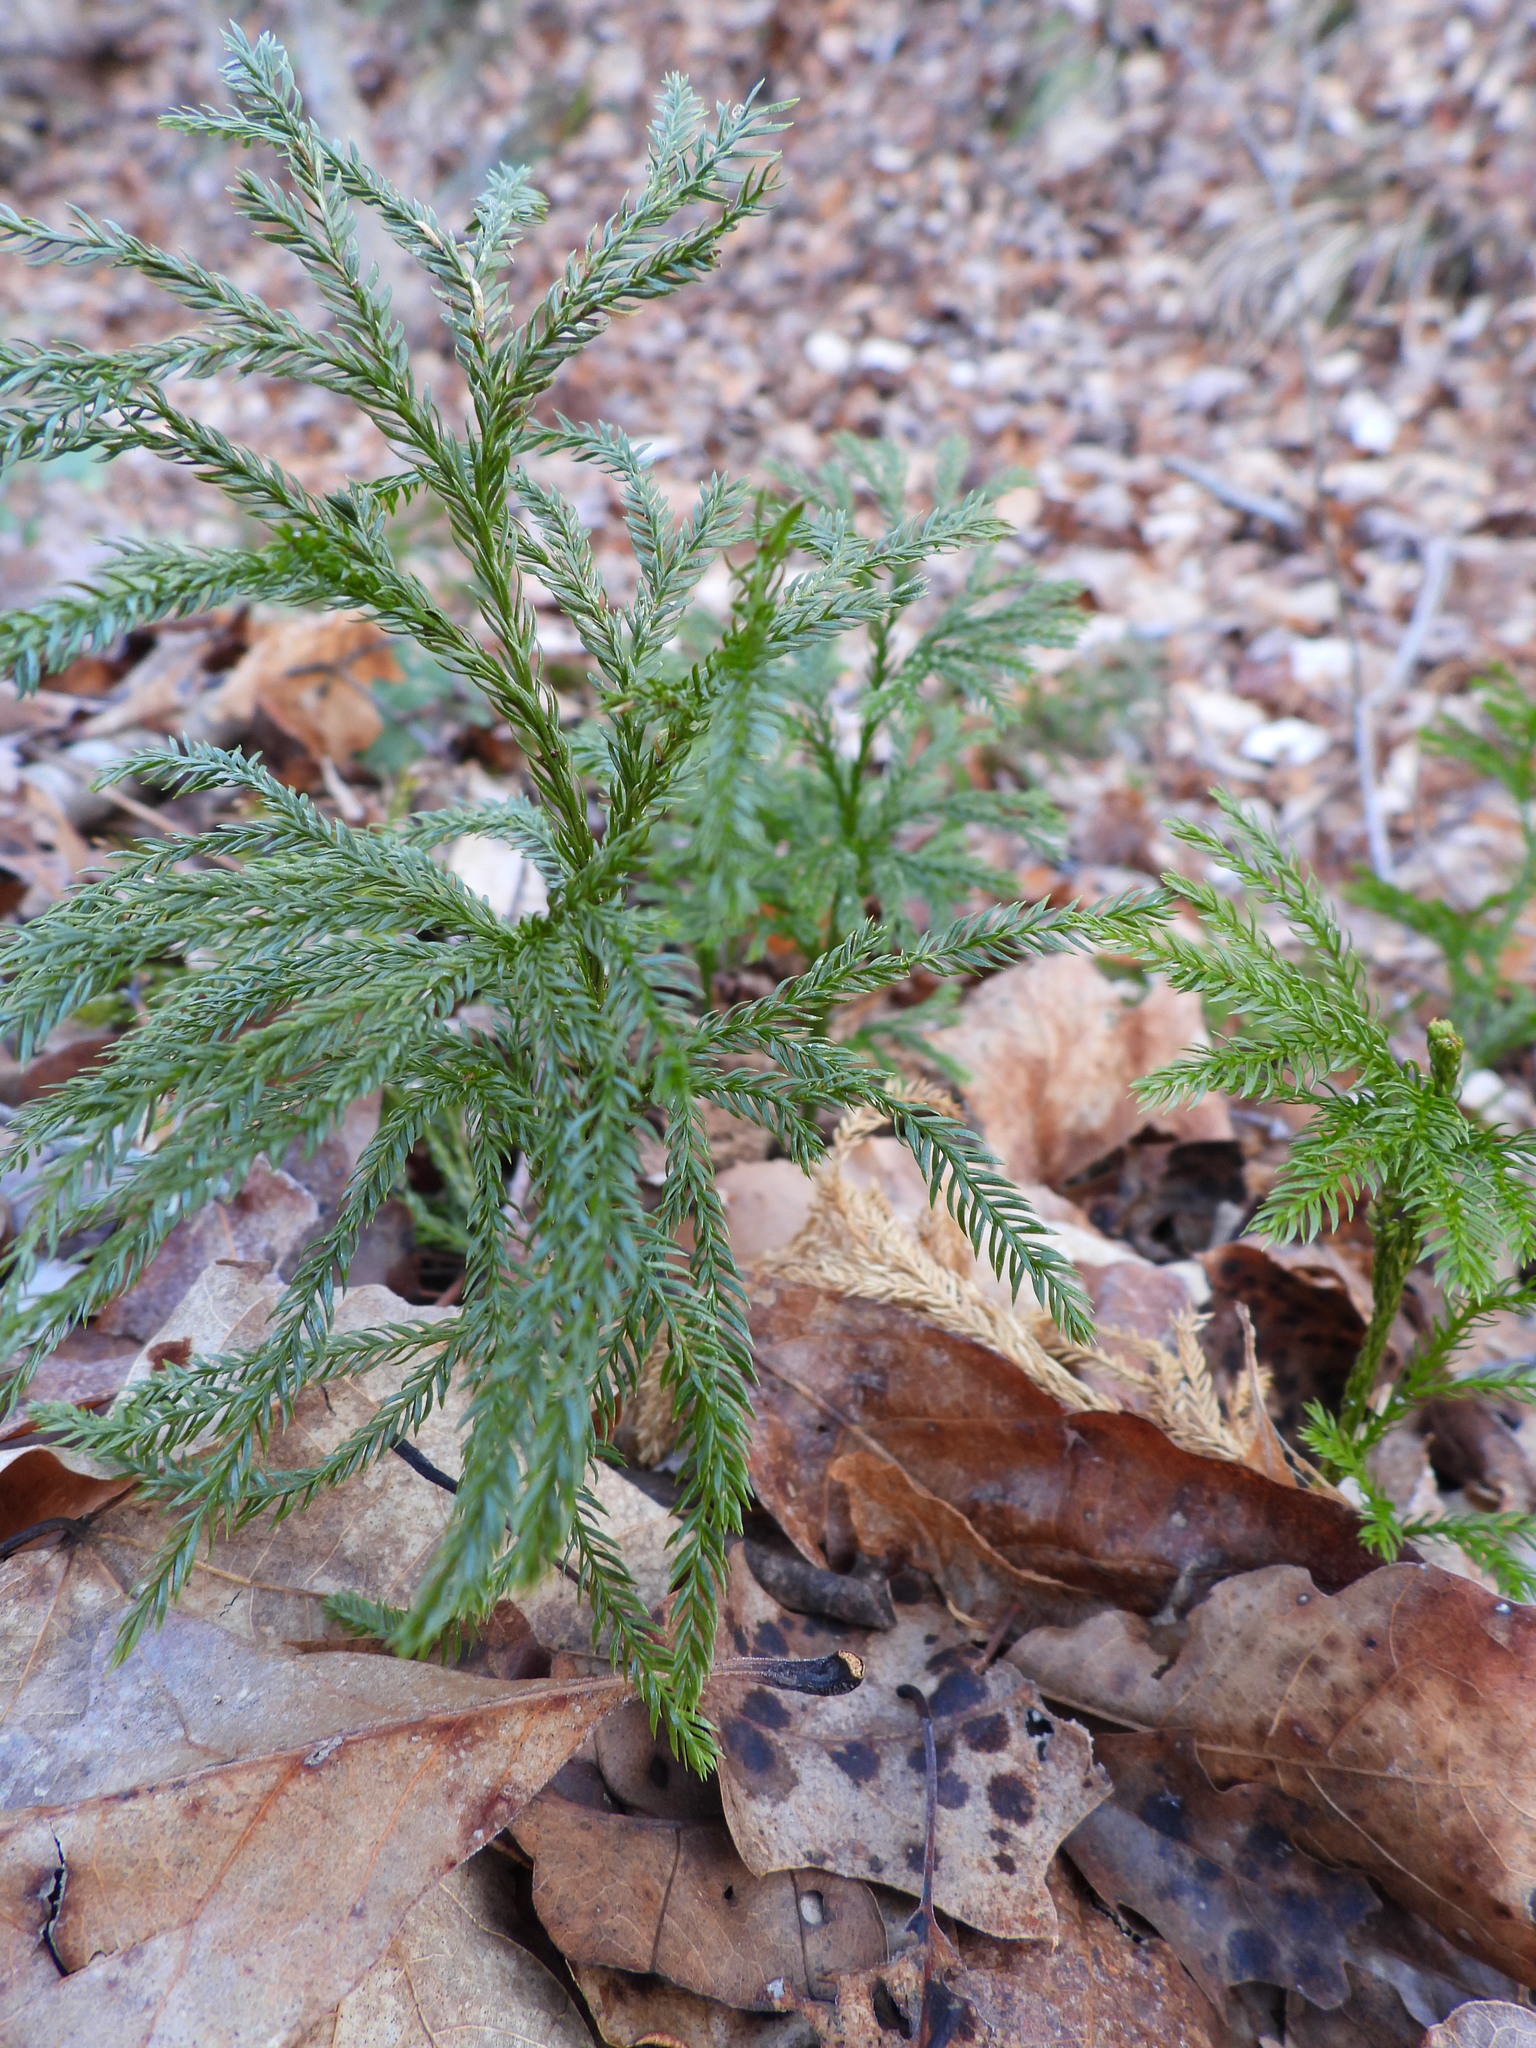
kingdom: Plantae
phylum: Tracheophyta
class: Lycopodiopsida
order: Lycopodiales
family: Lycopodiaceae
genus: Dendrolycopodium
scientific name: Dendrolycopodium obscurum
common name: Common ground-pine
